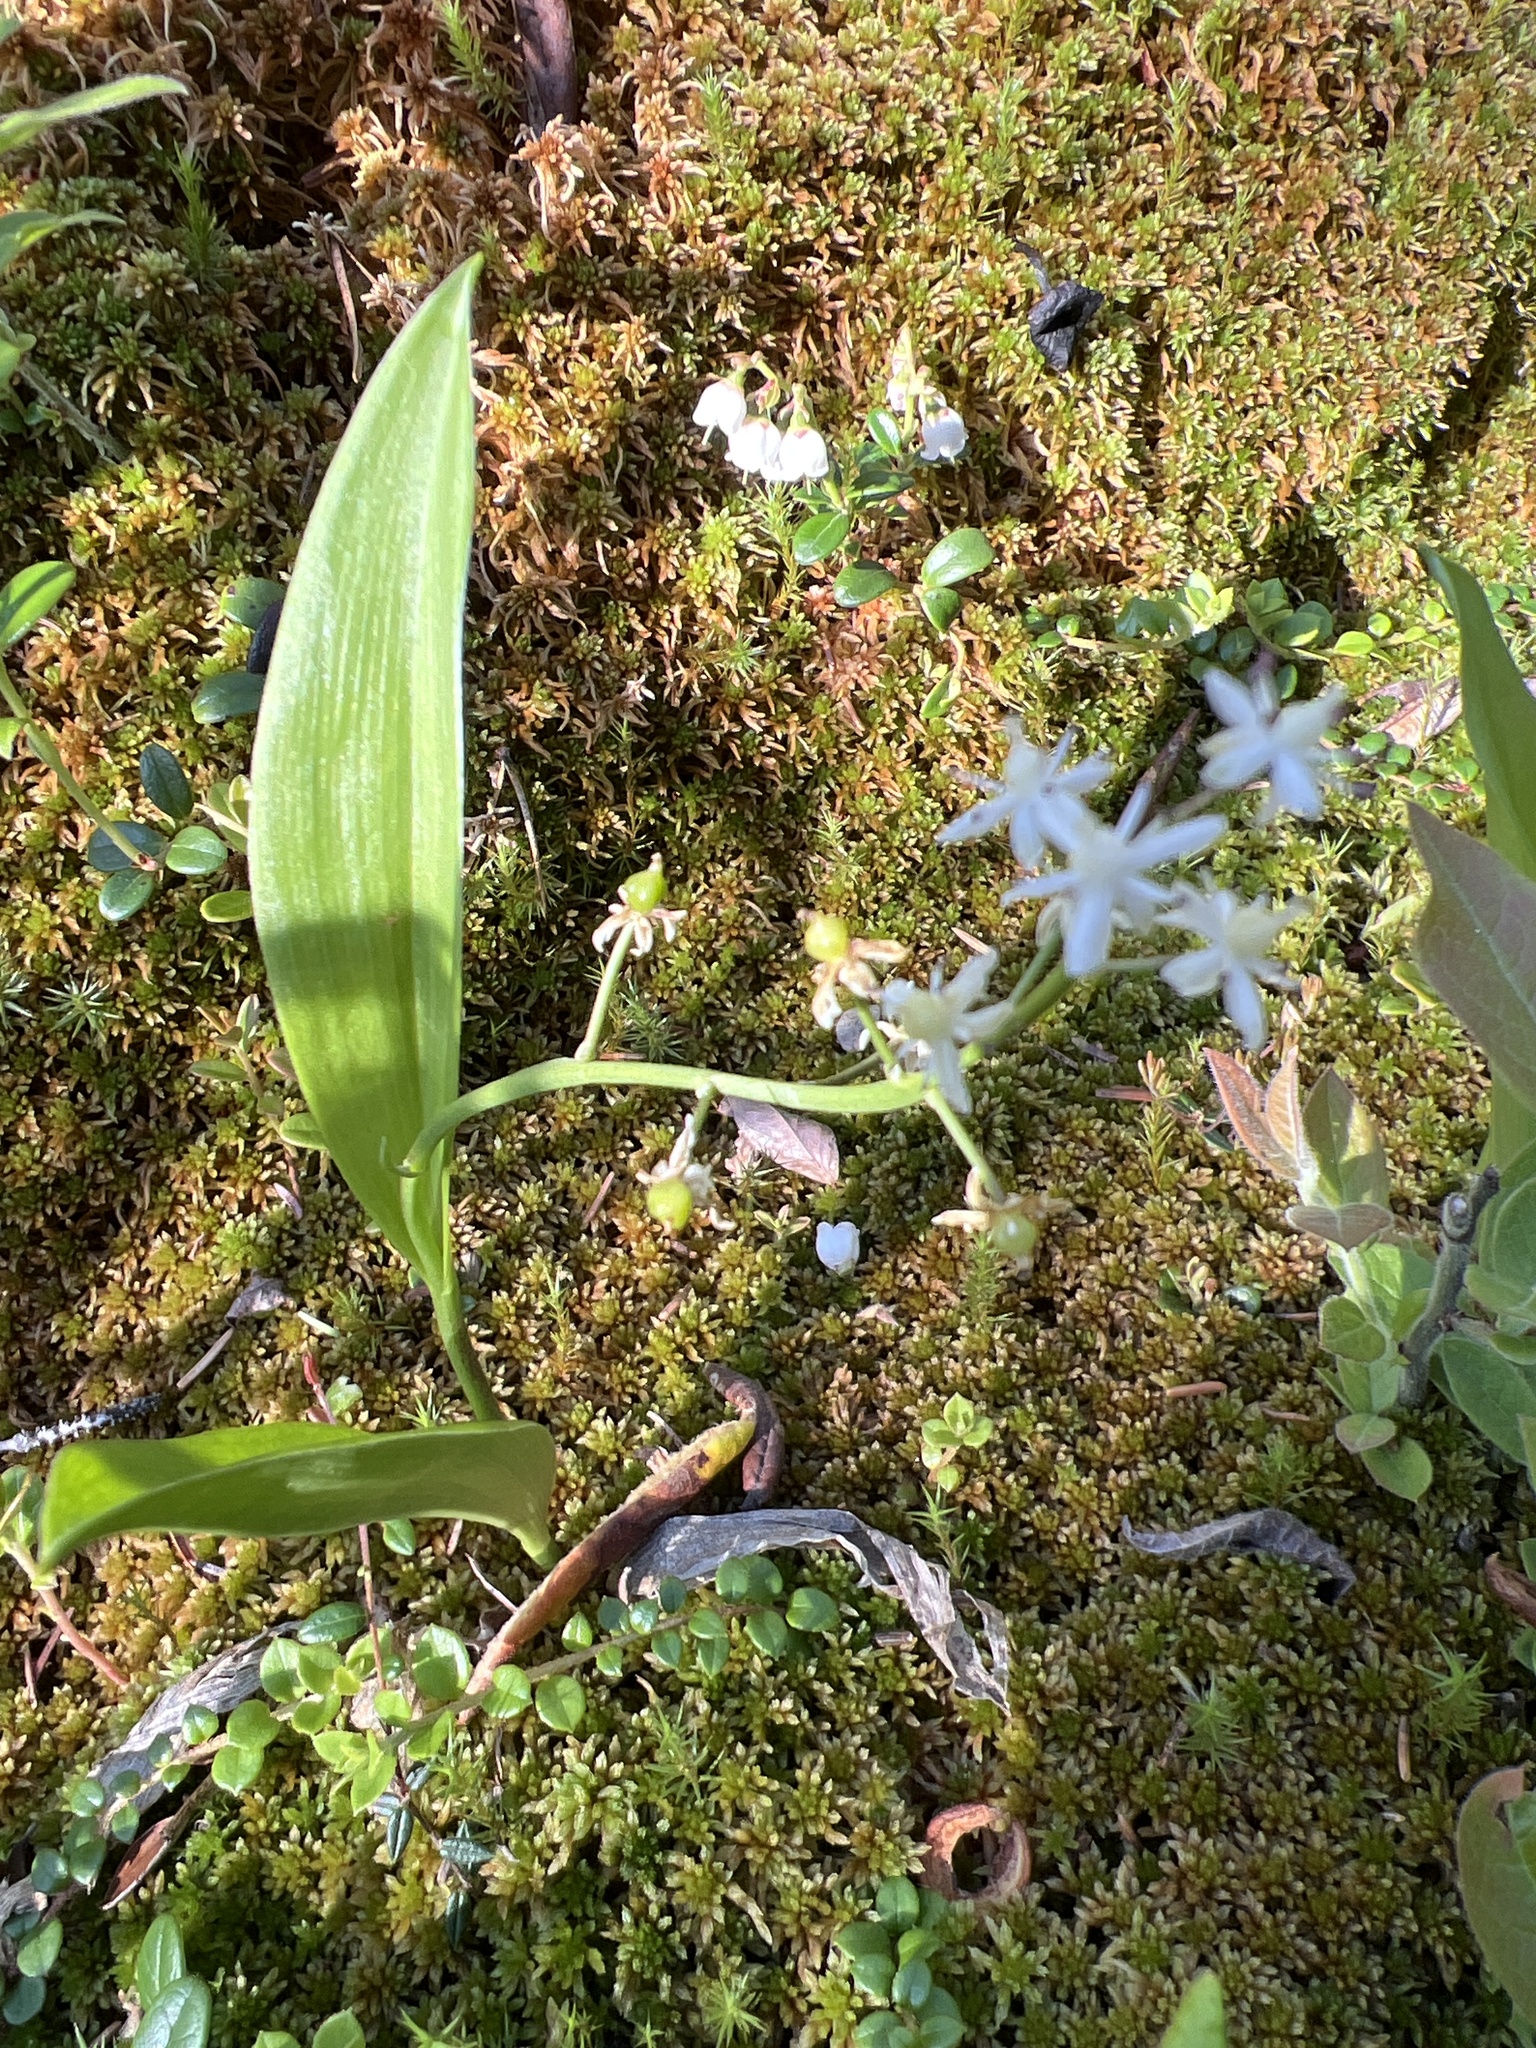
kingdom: Plantae
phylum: Tracheophyta
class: Liliopsida
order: Asparagales
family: Asparagaceae
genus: Maianthemum
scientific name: Maianthemum trifolium
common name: Swamp false solomon's seal
